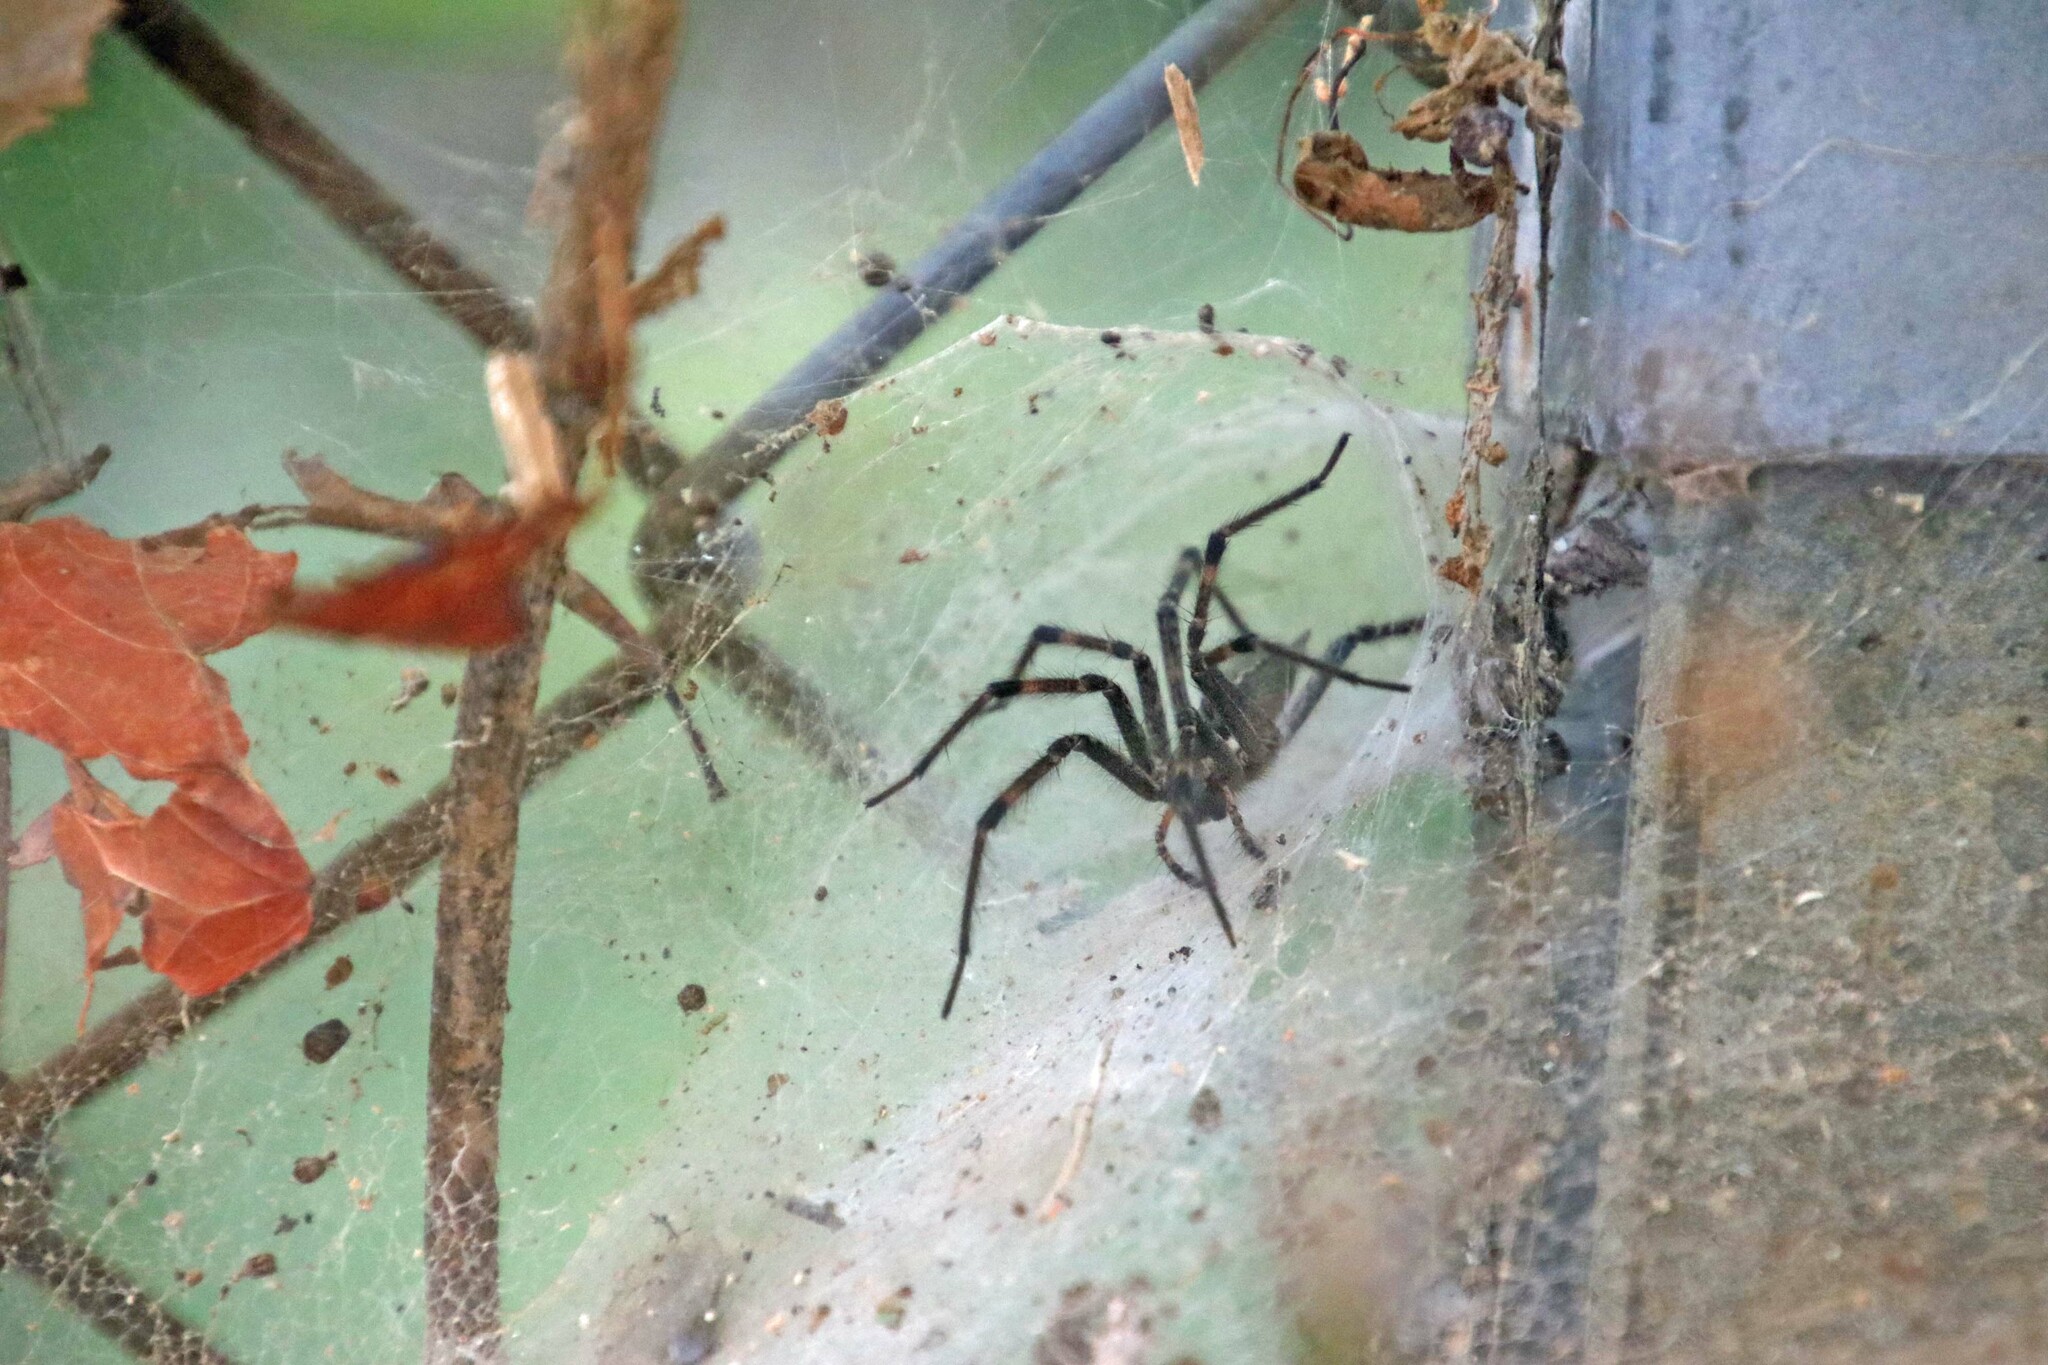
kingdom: Animalia
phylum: Arthropoda
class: Arachnida
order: Araneae
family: Agelenidae
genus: Agelenopsis
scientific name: Agelenopsis
